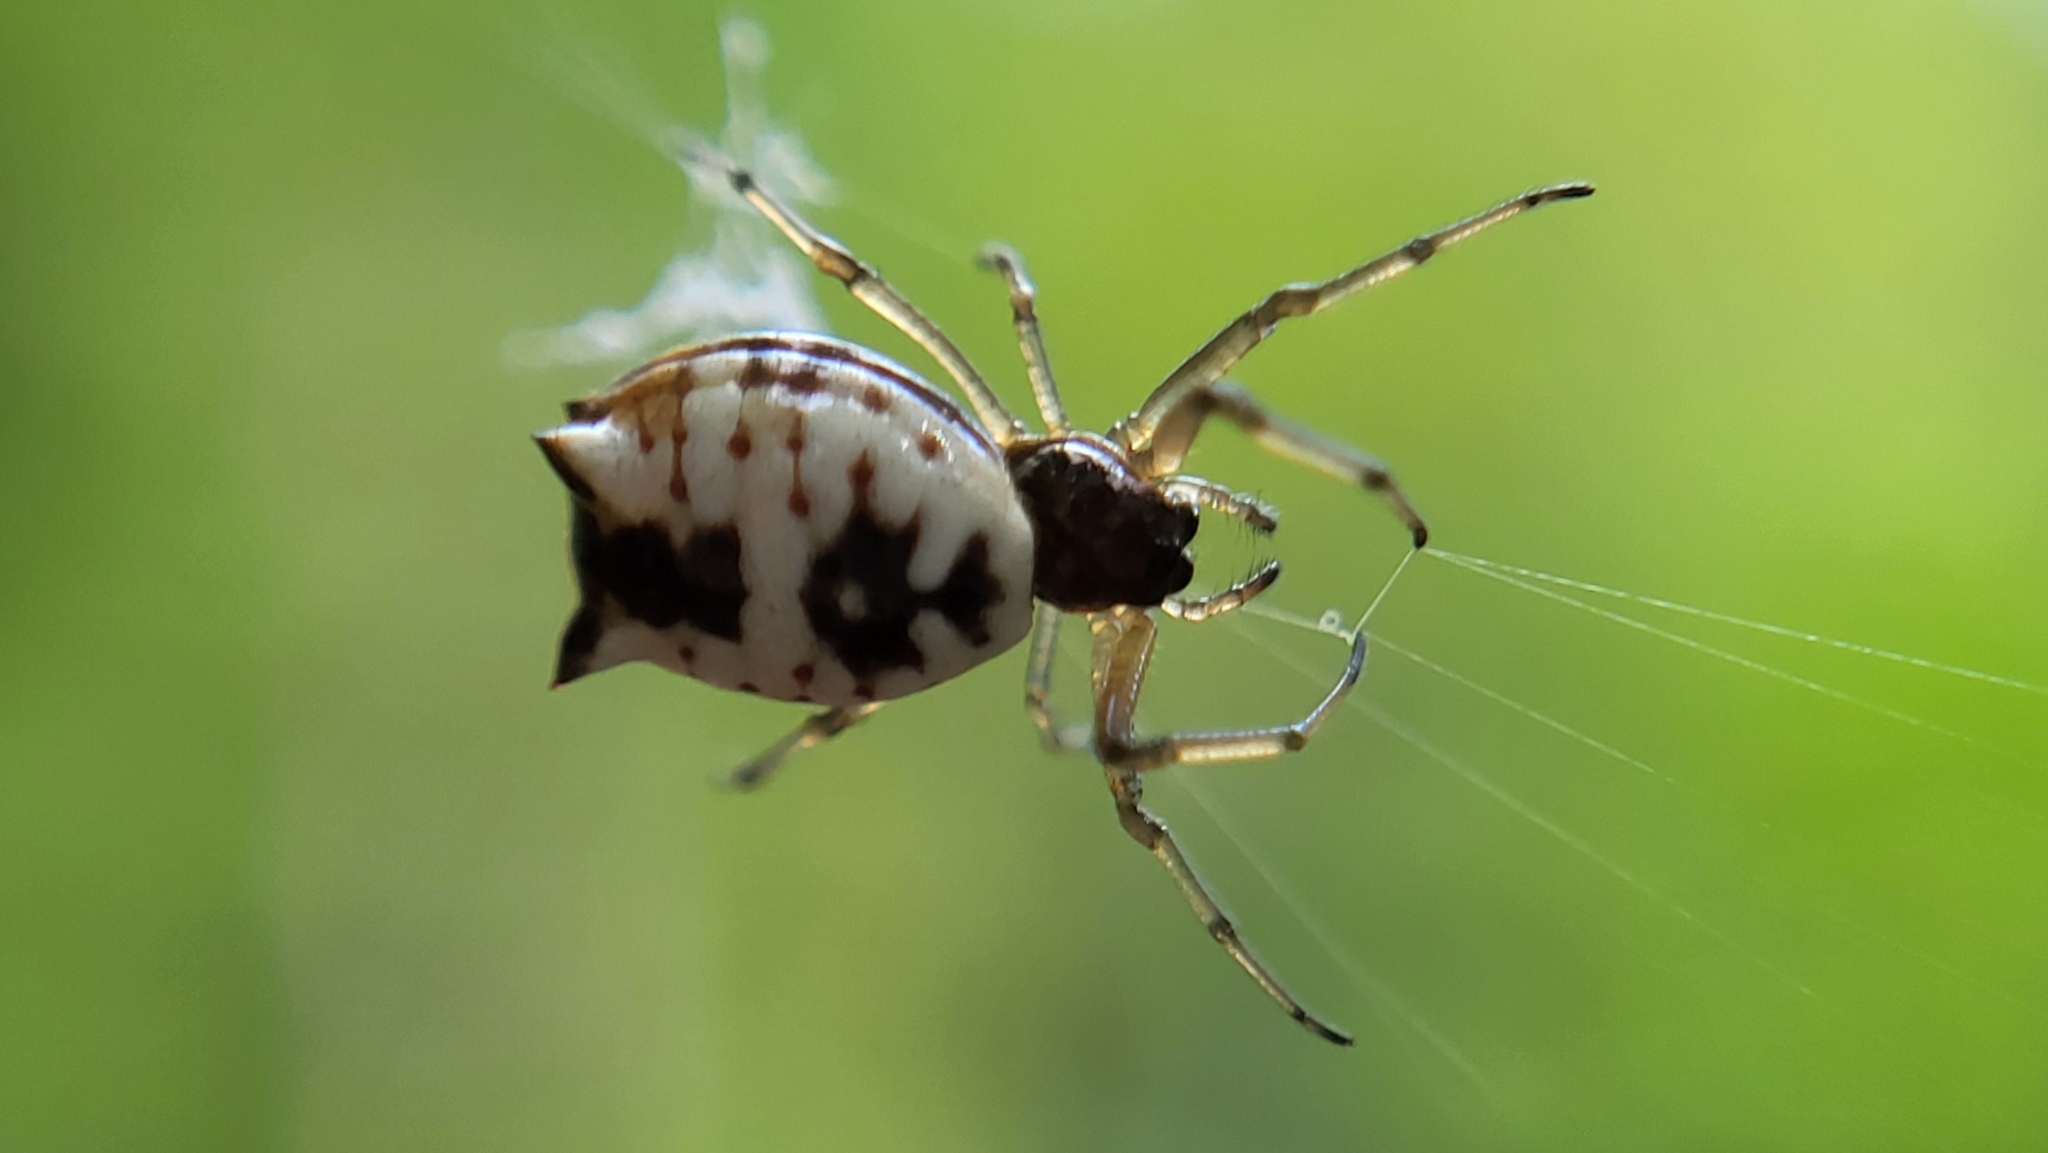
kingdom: Animalia
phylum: Arthropoda
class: Arachnida
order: Araneae
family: Araneidae
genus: Micrathena
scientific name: Micrathena mitrata
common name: Orb weavers
